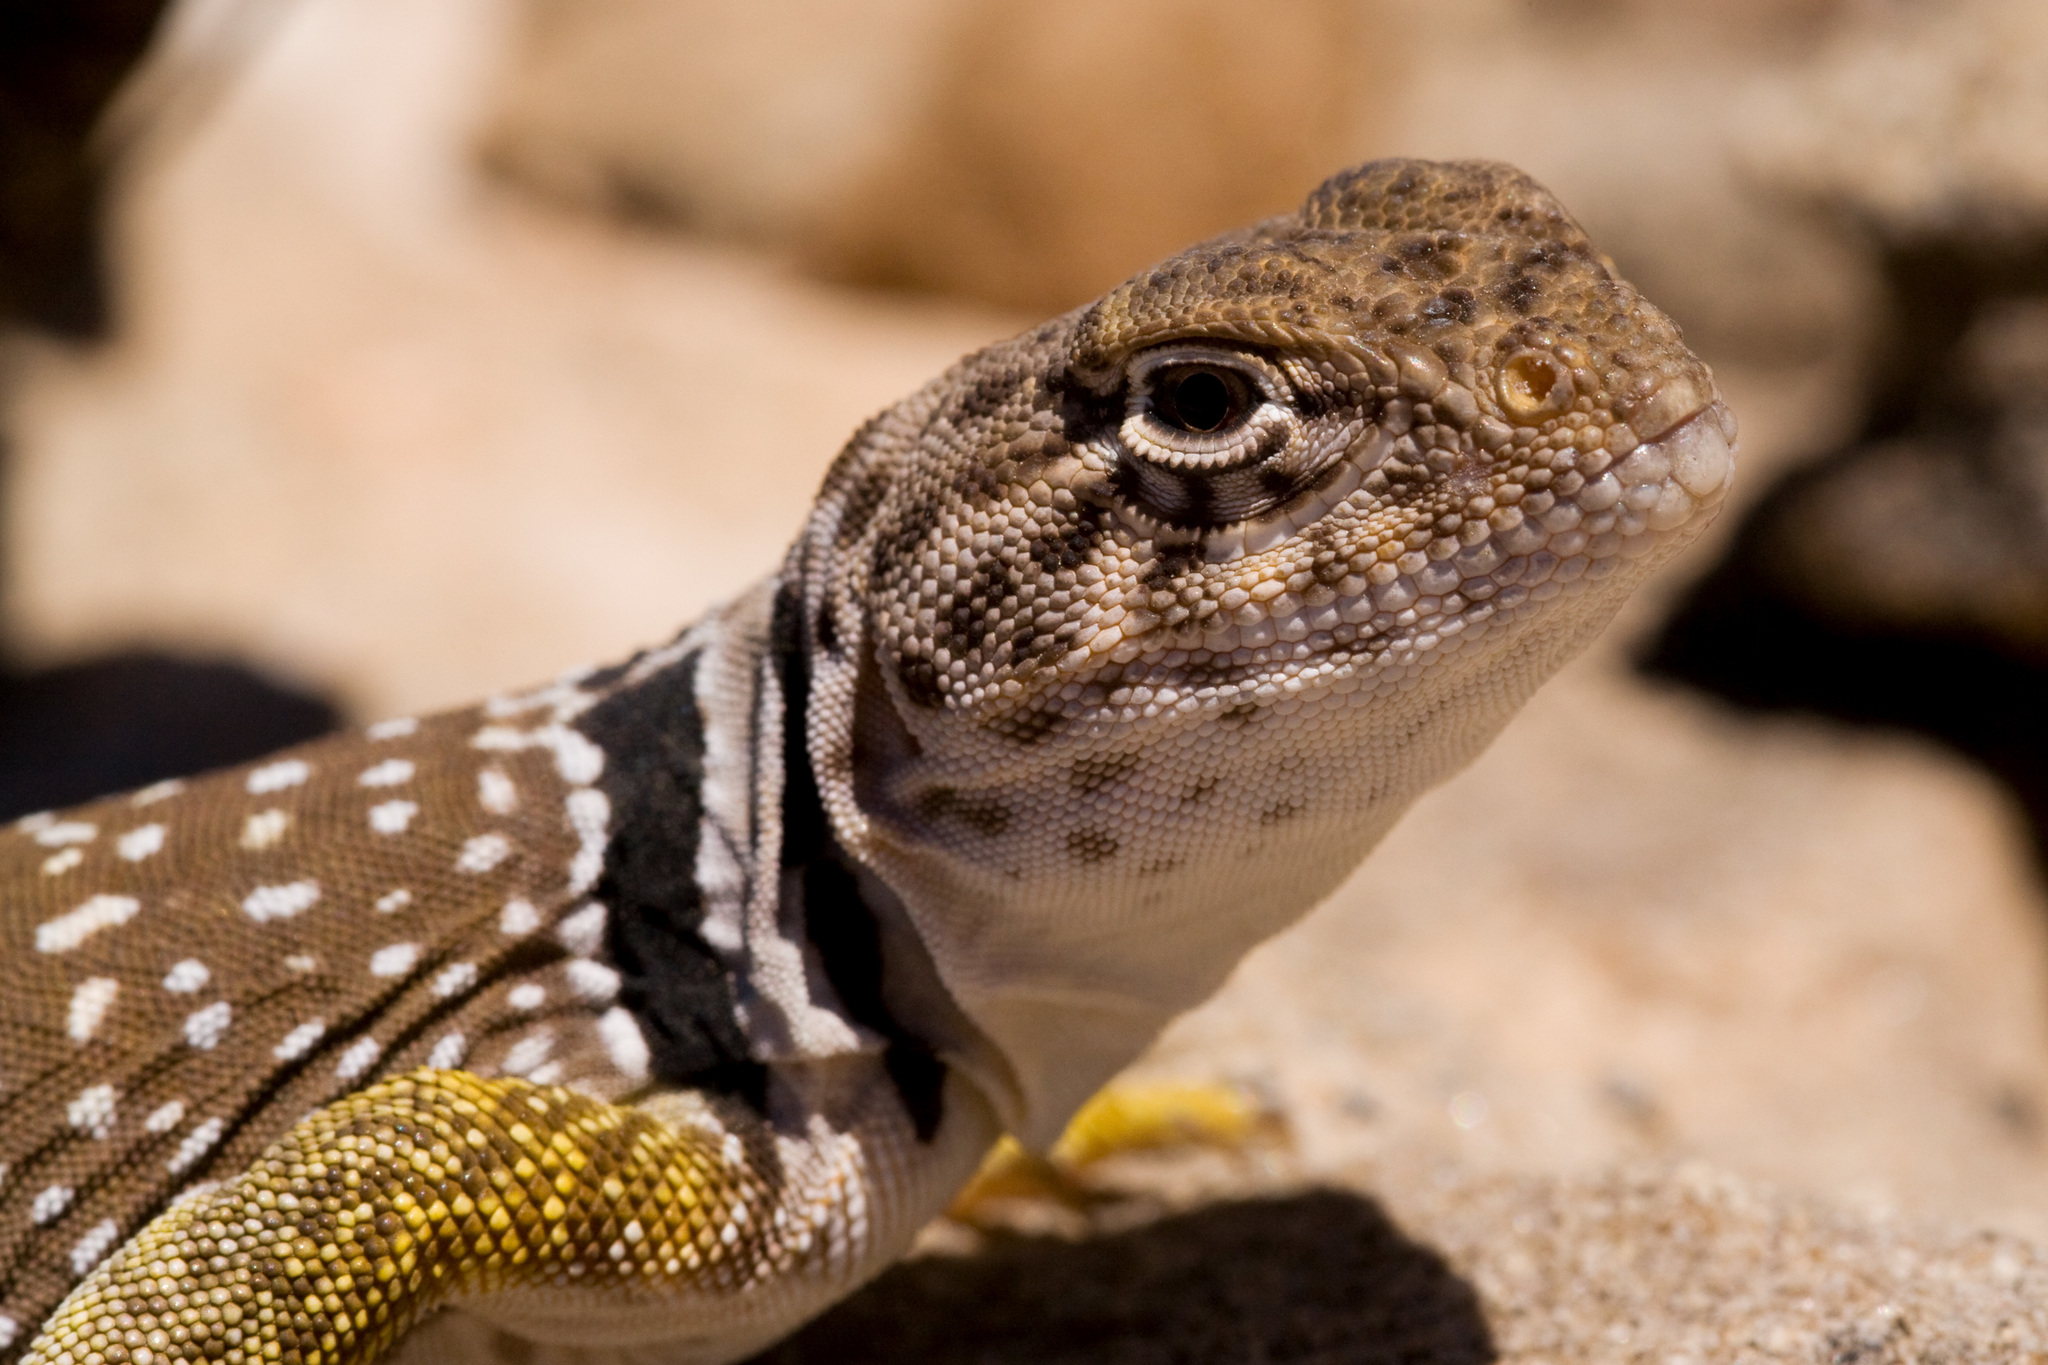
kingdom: Animalia
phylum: Chordata
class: Squamata
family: Crotaphytidae
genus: Crotaphytus
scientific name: Crotaphytus collaris
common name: Collared lizard
